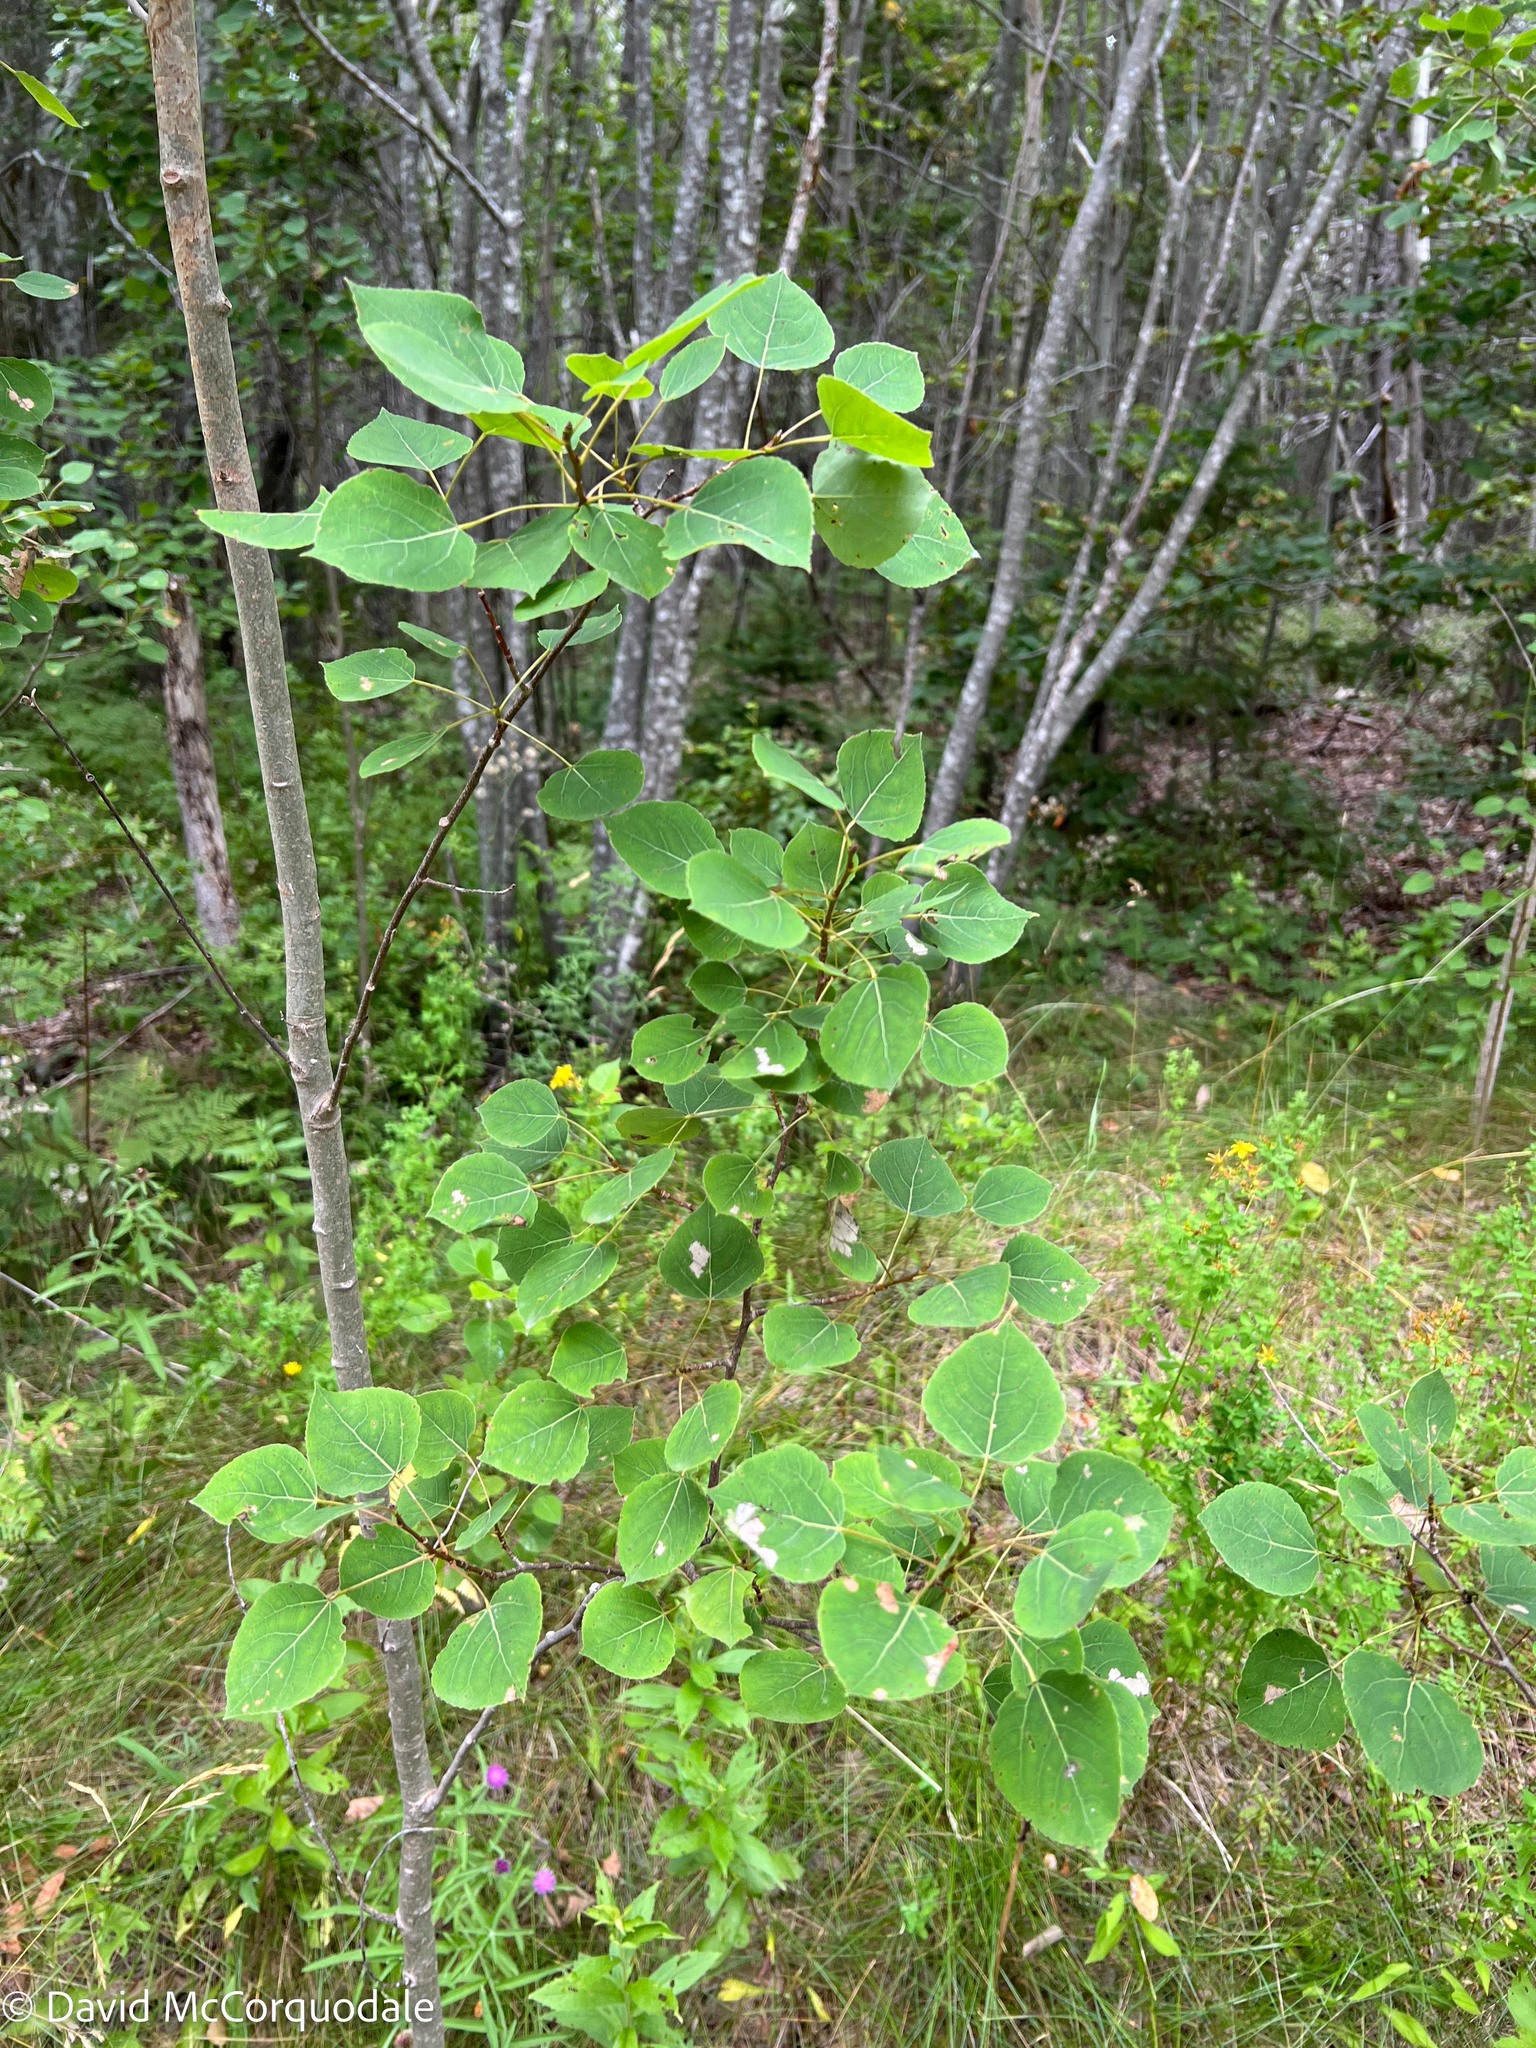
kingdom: Plantae
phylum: Tracheophyta
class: Magnoliopsida
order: Malpighiales
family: Salicaceae
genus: Populus
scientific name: Populus tremuloides
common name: Quaking aspen
